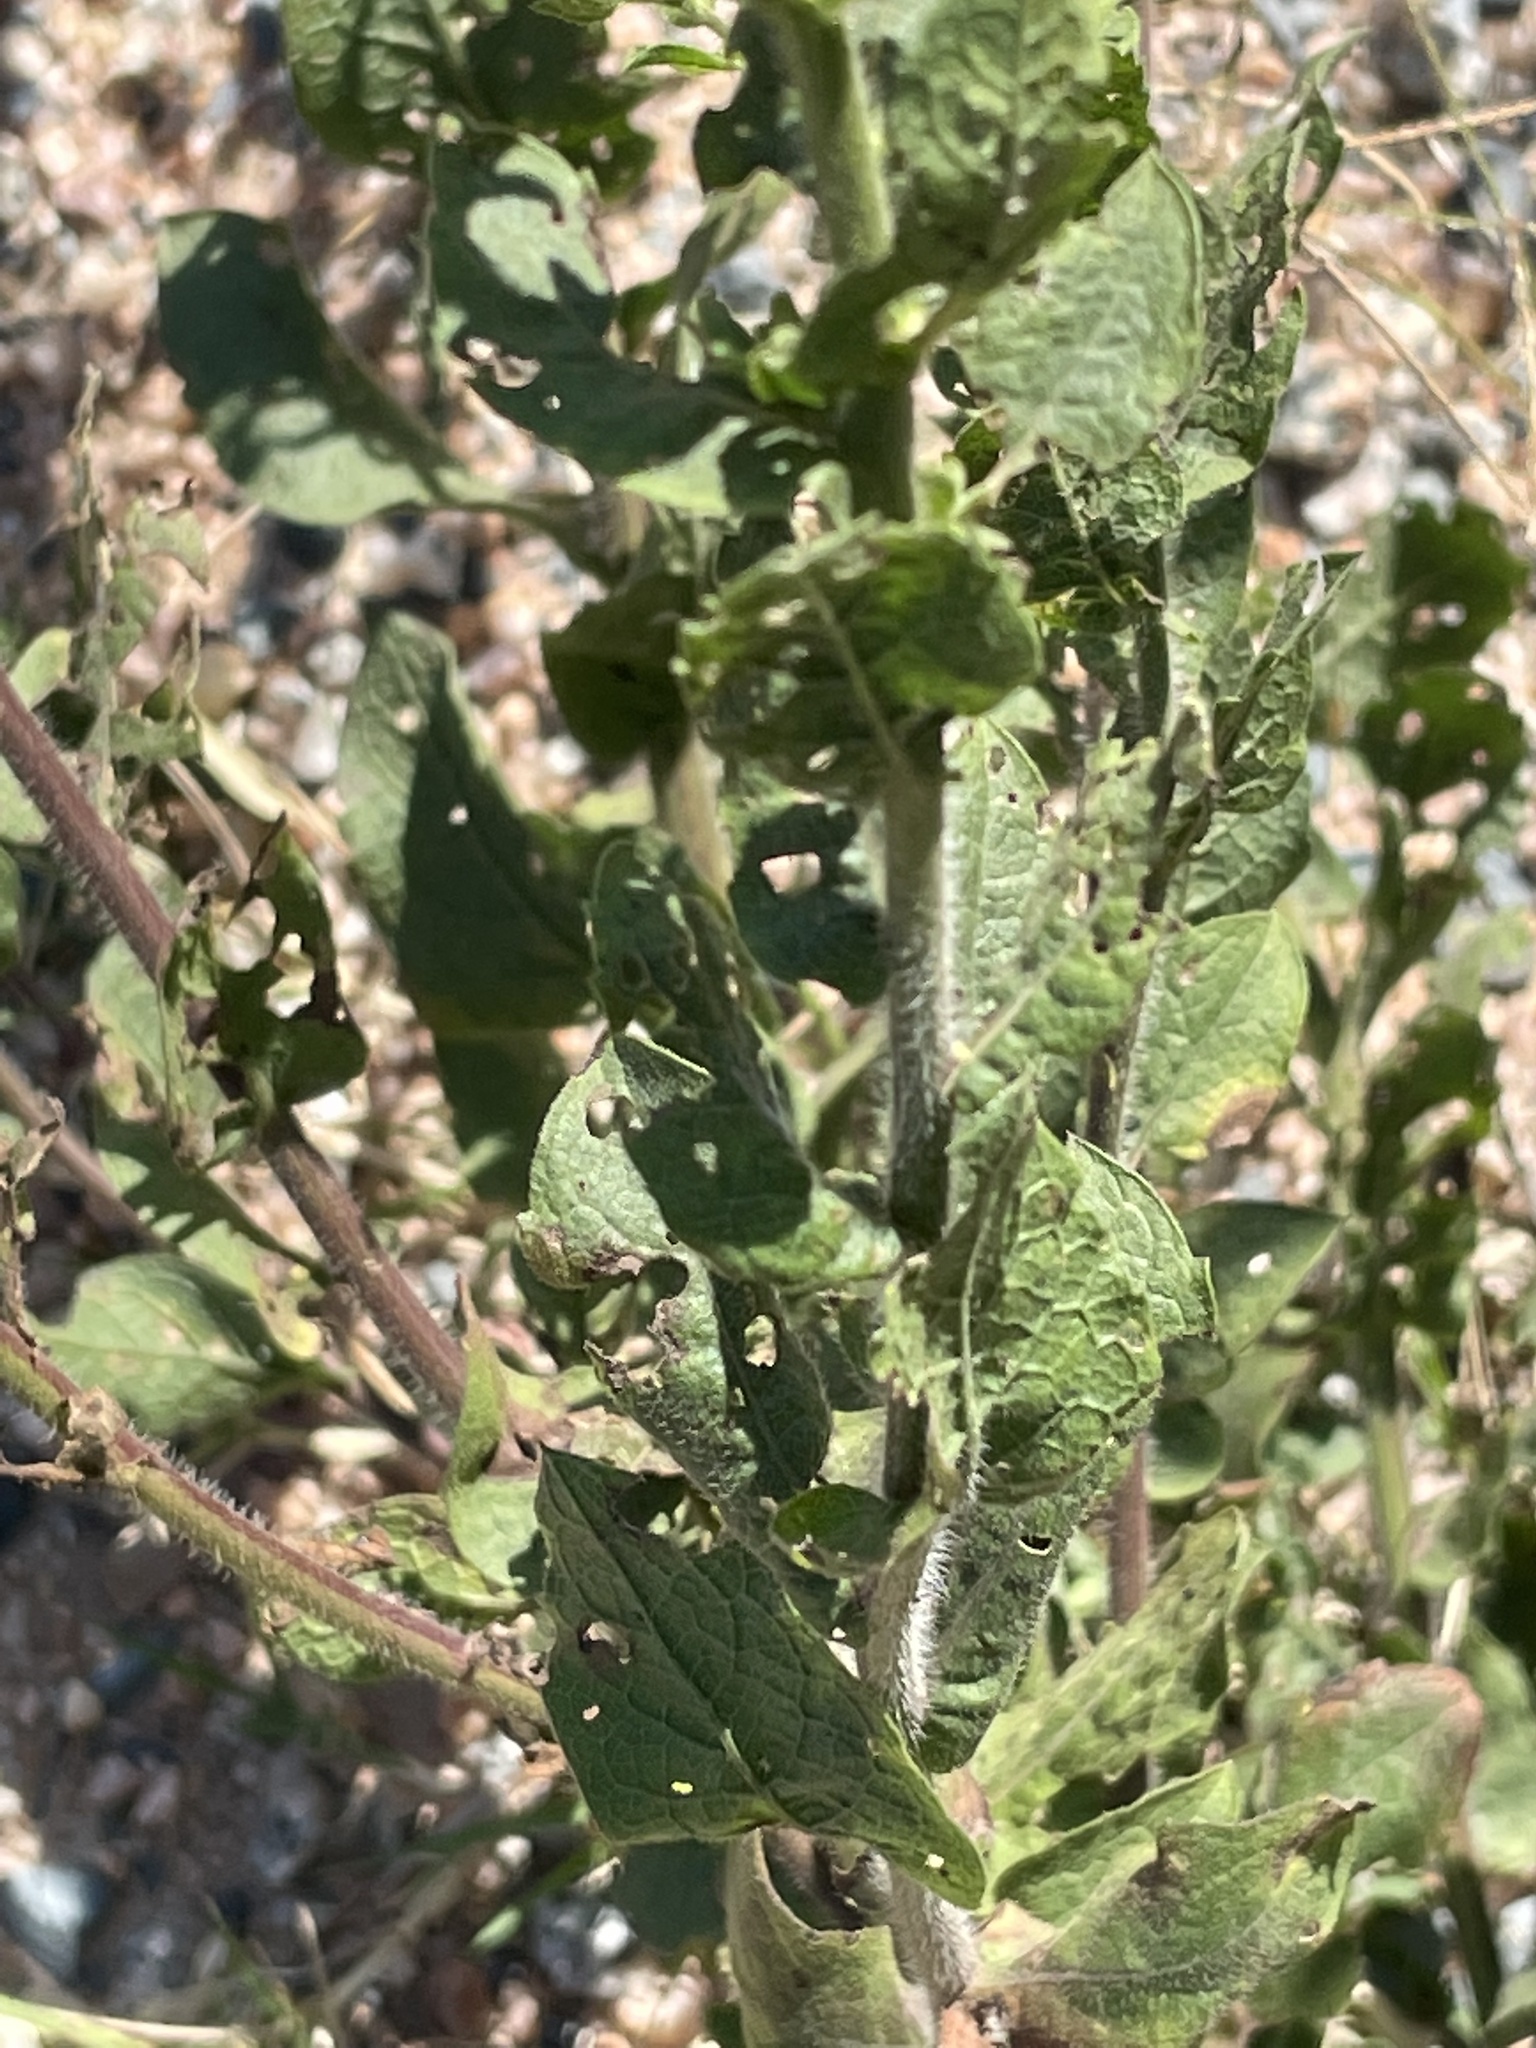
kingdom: Plantae
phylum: Tracheophyta
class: Magnoliopsida
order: Asterales
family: Asteraceae
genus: Heterotheca
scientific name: Heterotheca subaxillaris
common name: Camphorweed
